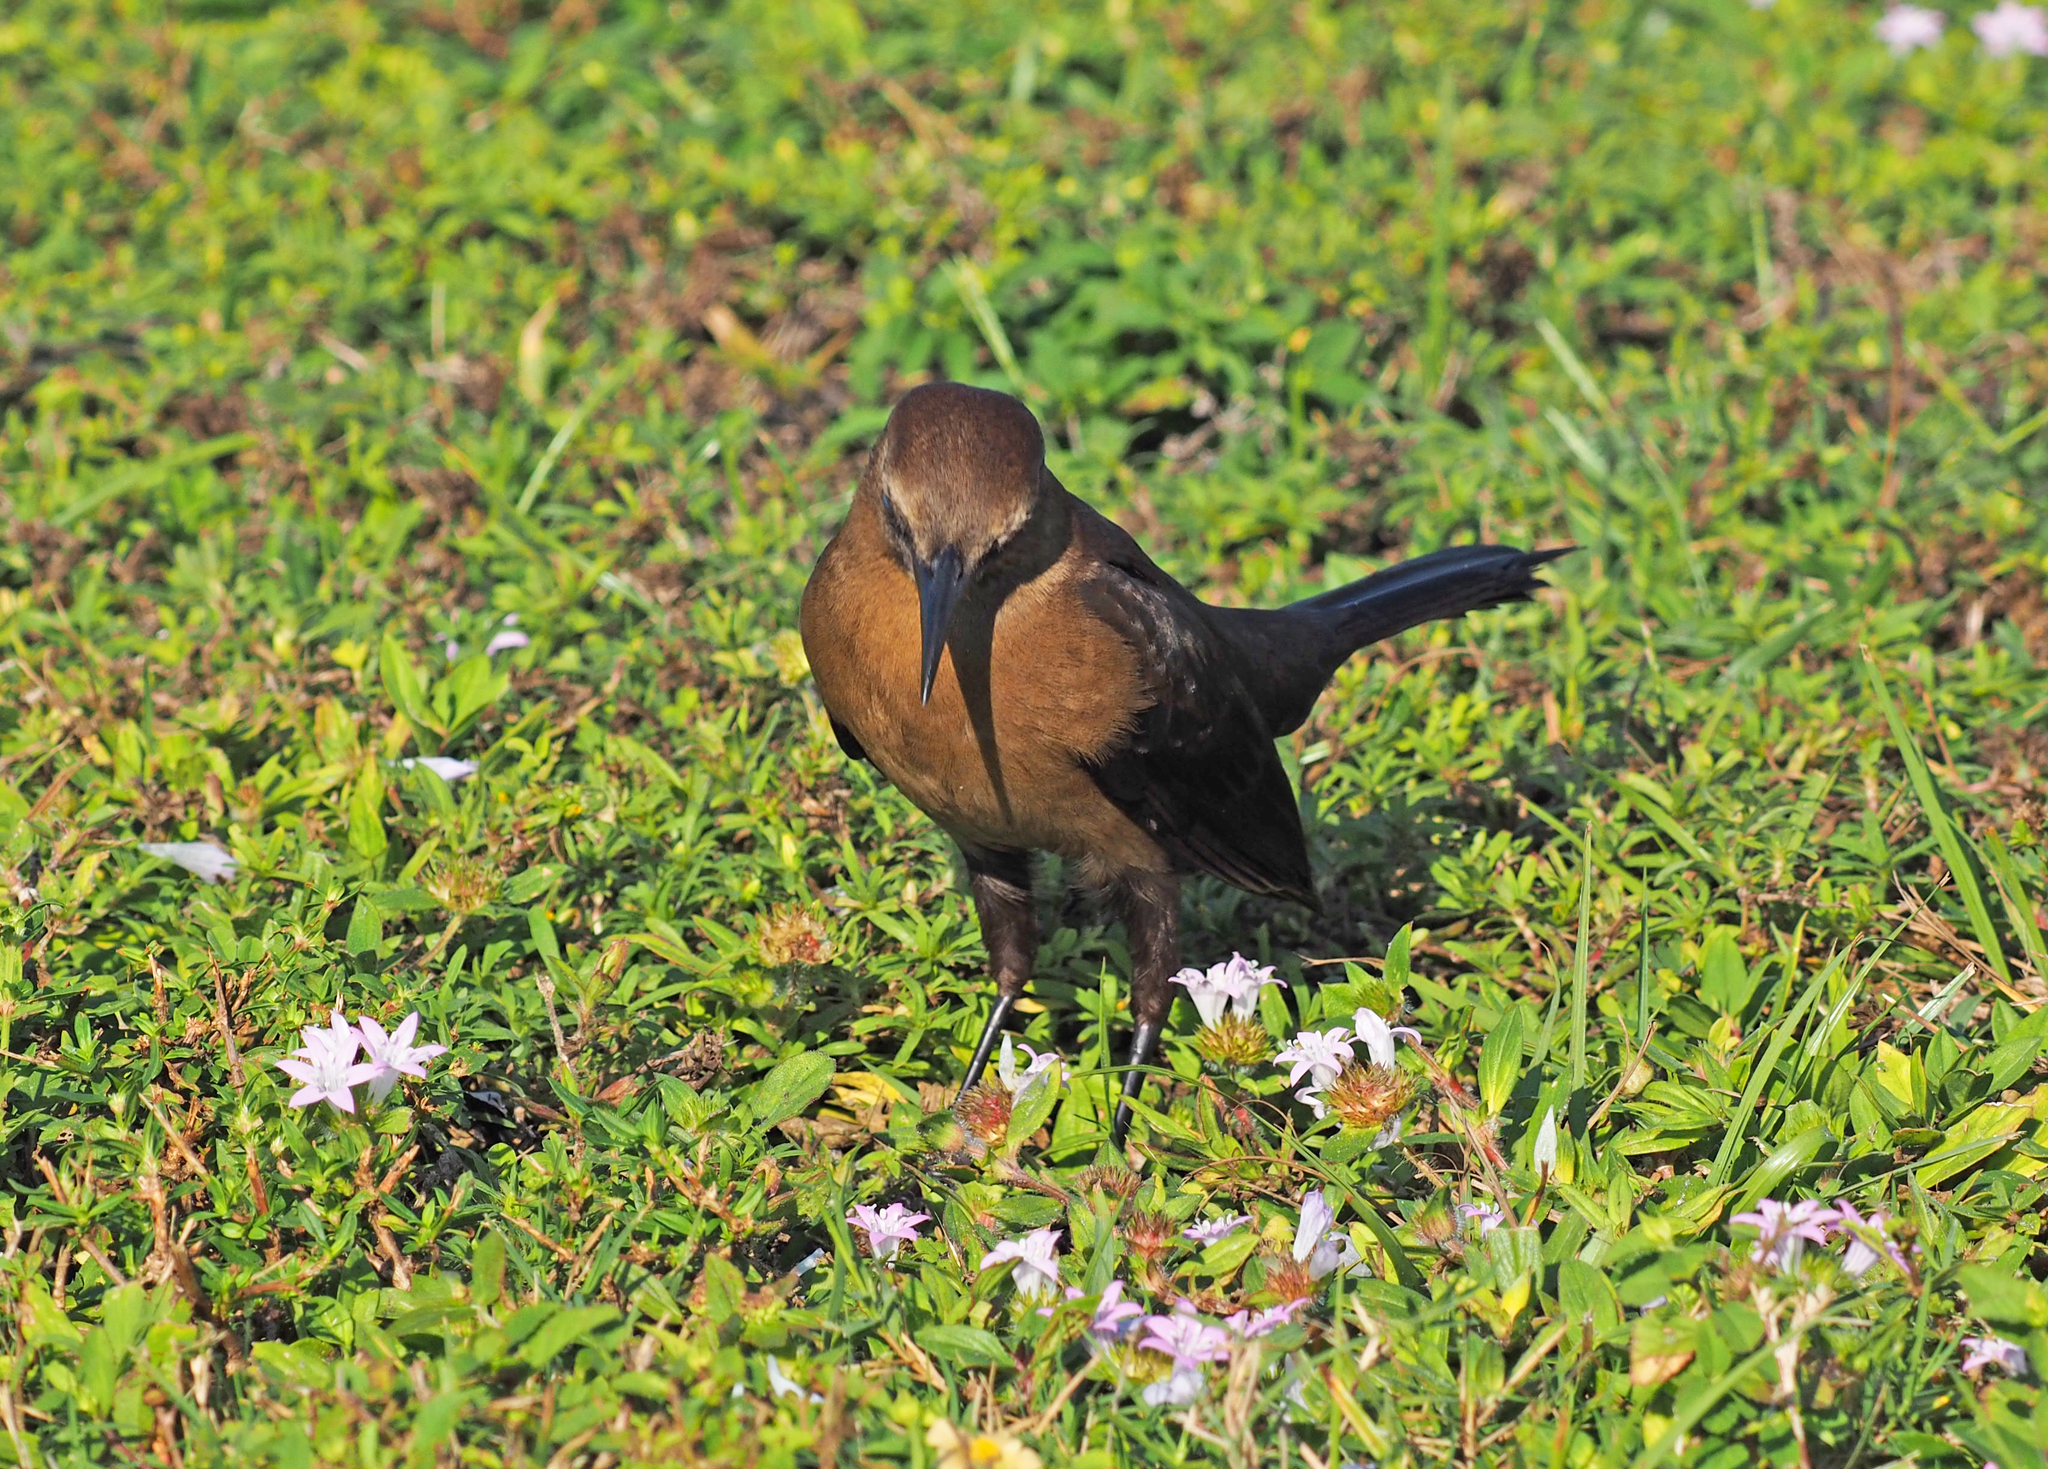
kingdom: Animalia
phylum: Chordata
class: Aves
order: Passeriformes
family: Icteridae
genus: Quiscalus
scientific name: Quiscalus major
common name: Boat-tailed grackle
